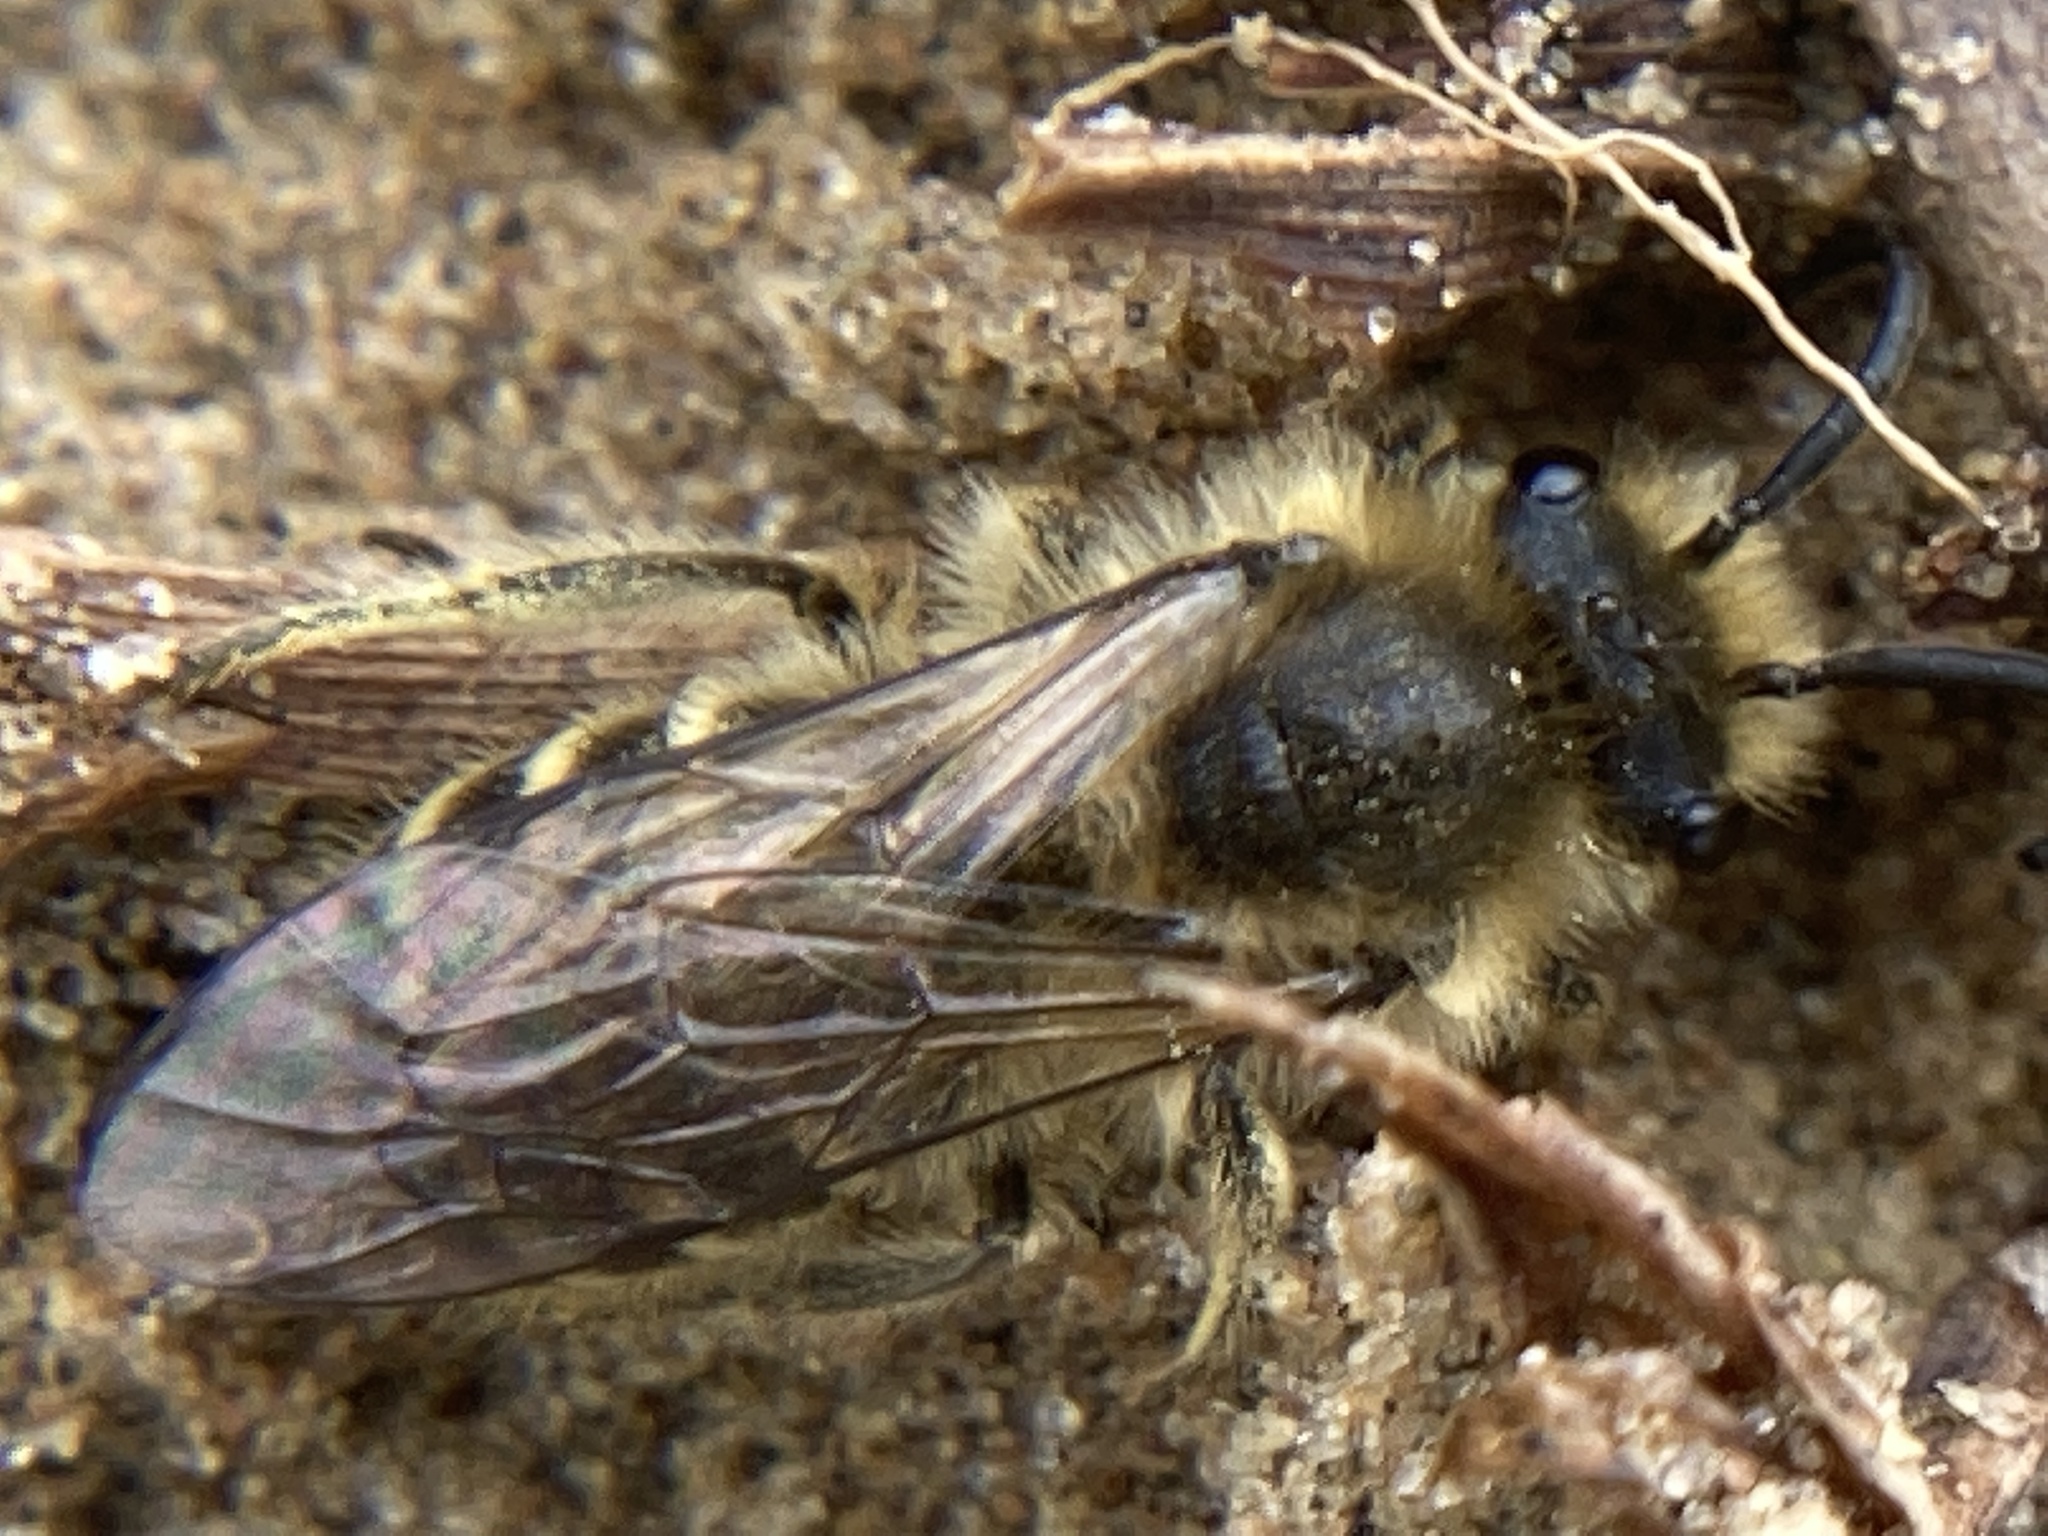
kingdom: Animalia
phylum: Arthropoda
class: Insecta
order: Hymenoptera
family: Colletidae
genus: Colletes
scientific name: Colletes inaequalis
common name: Unequal cellophane bee
